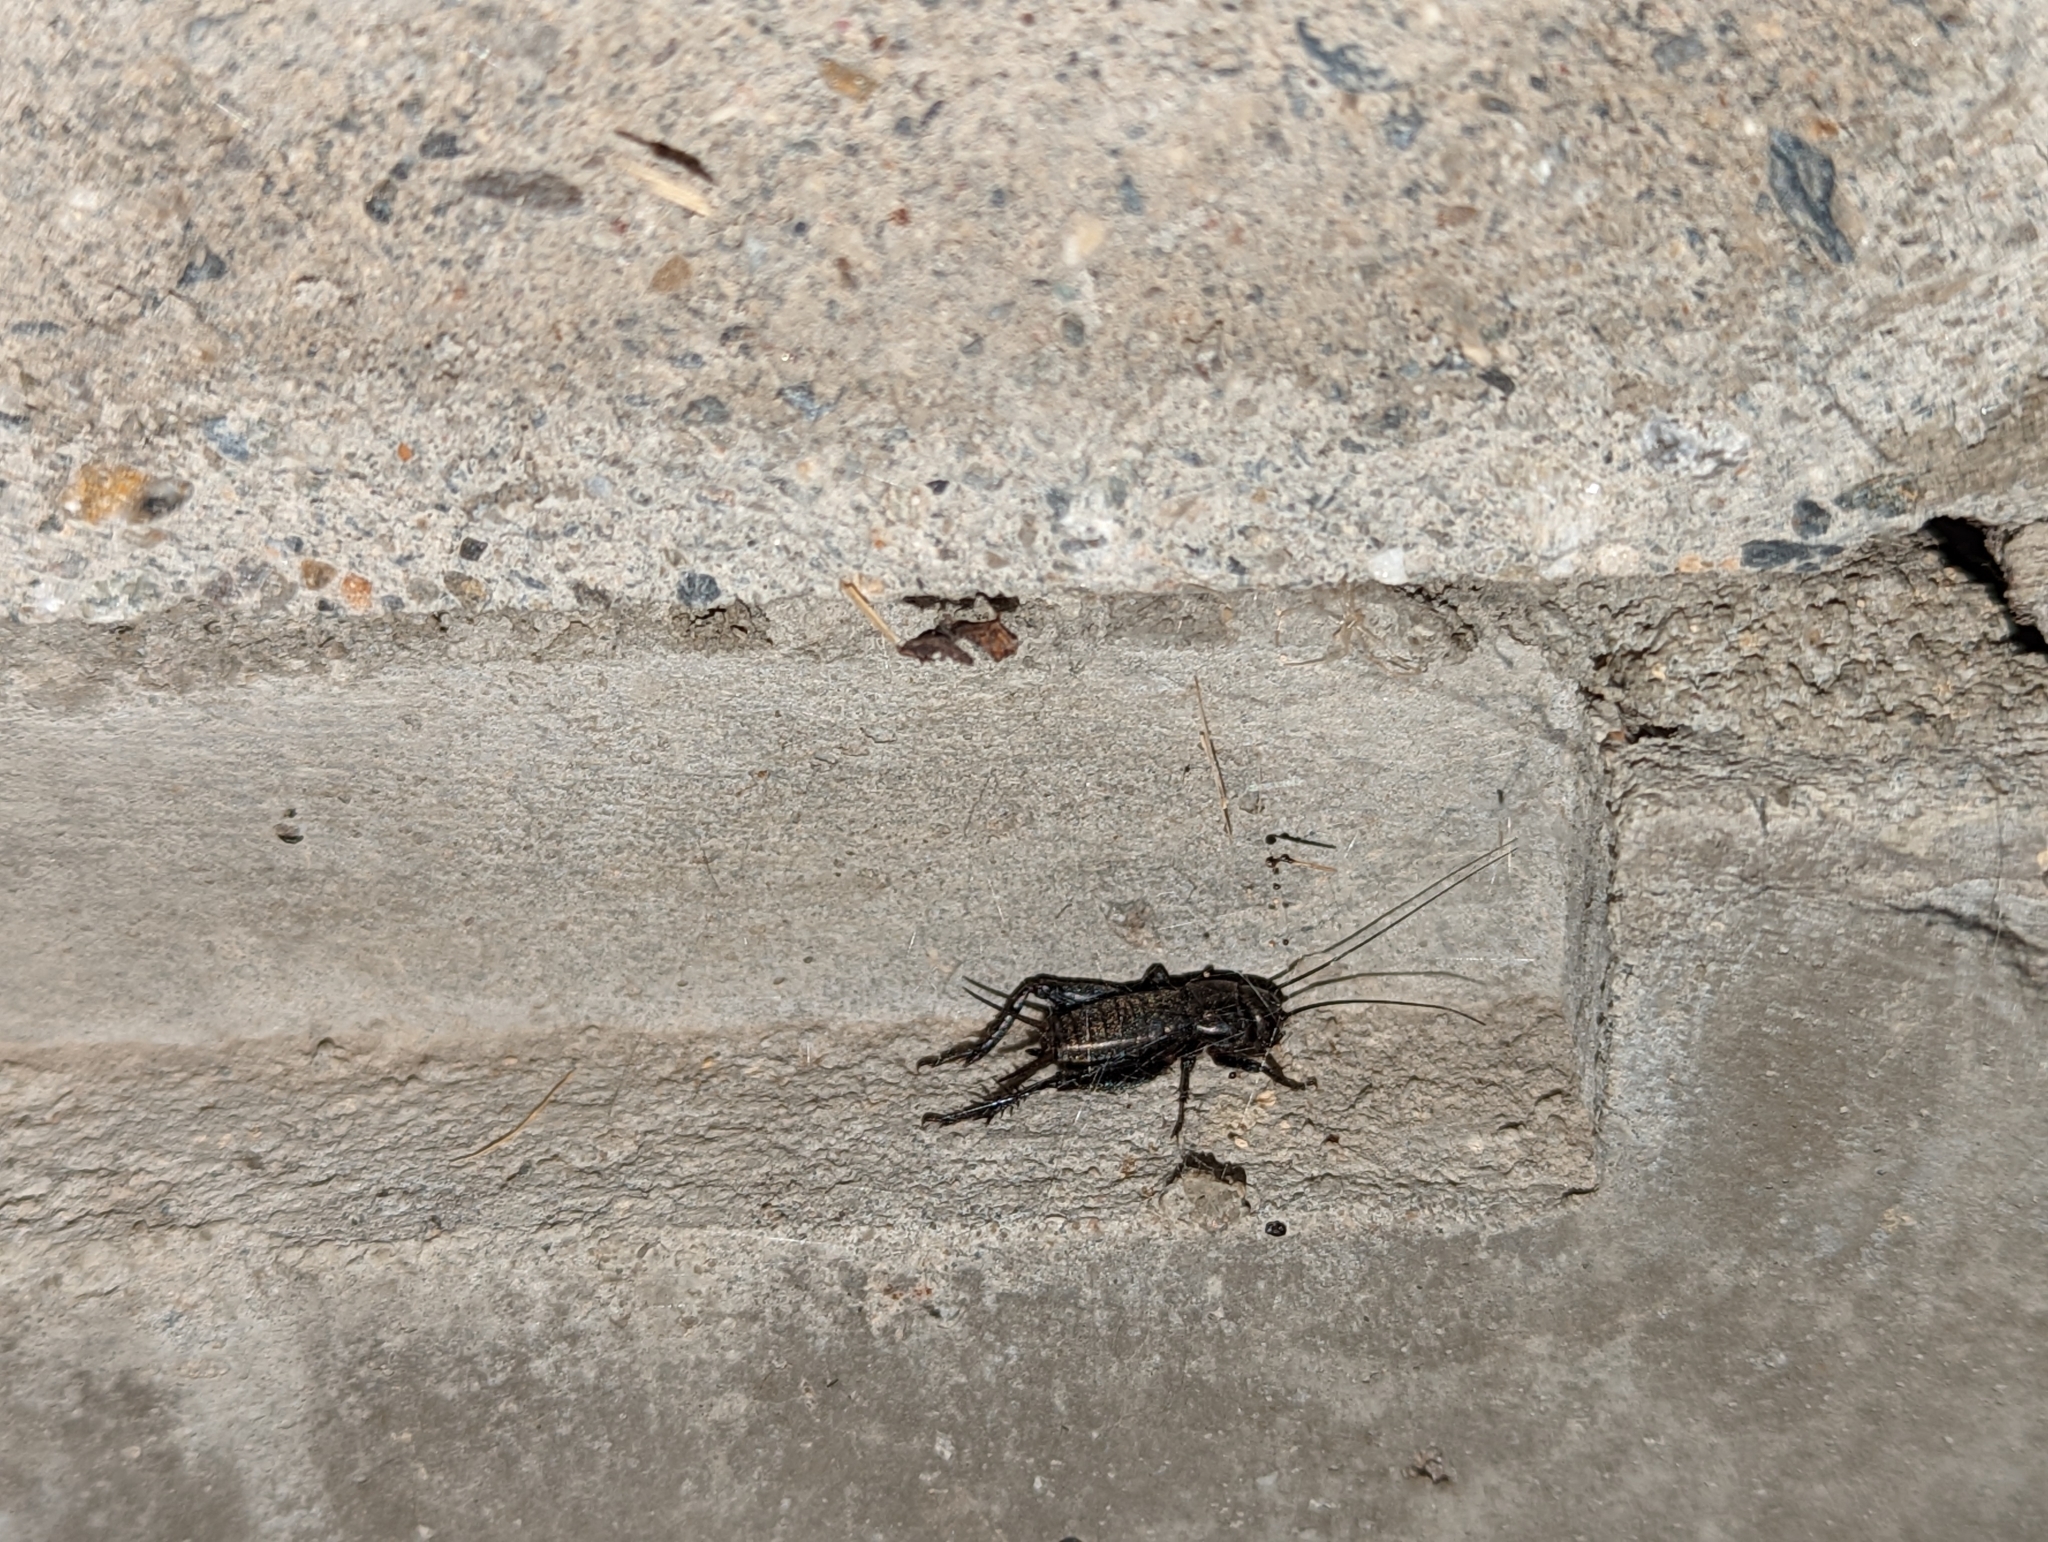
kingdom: Animalia
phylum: Arthropoda
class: Insecta
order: Orthoptera
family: Gryllidae
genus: Gryllus
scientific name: Gryllus veletis
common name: Spring field cricket
